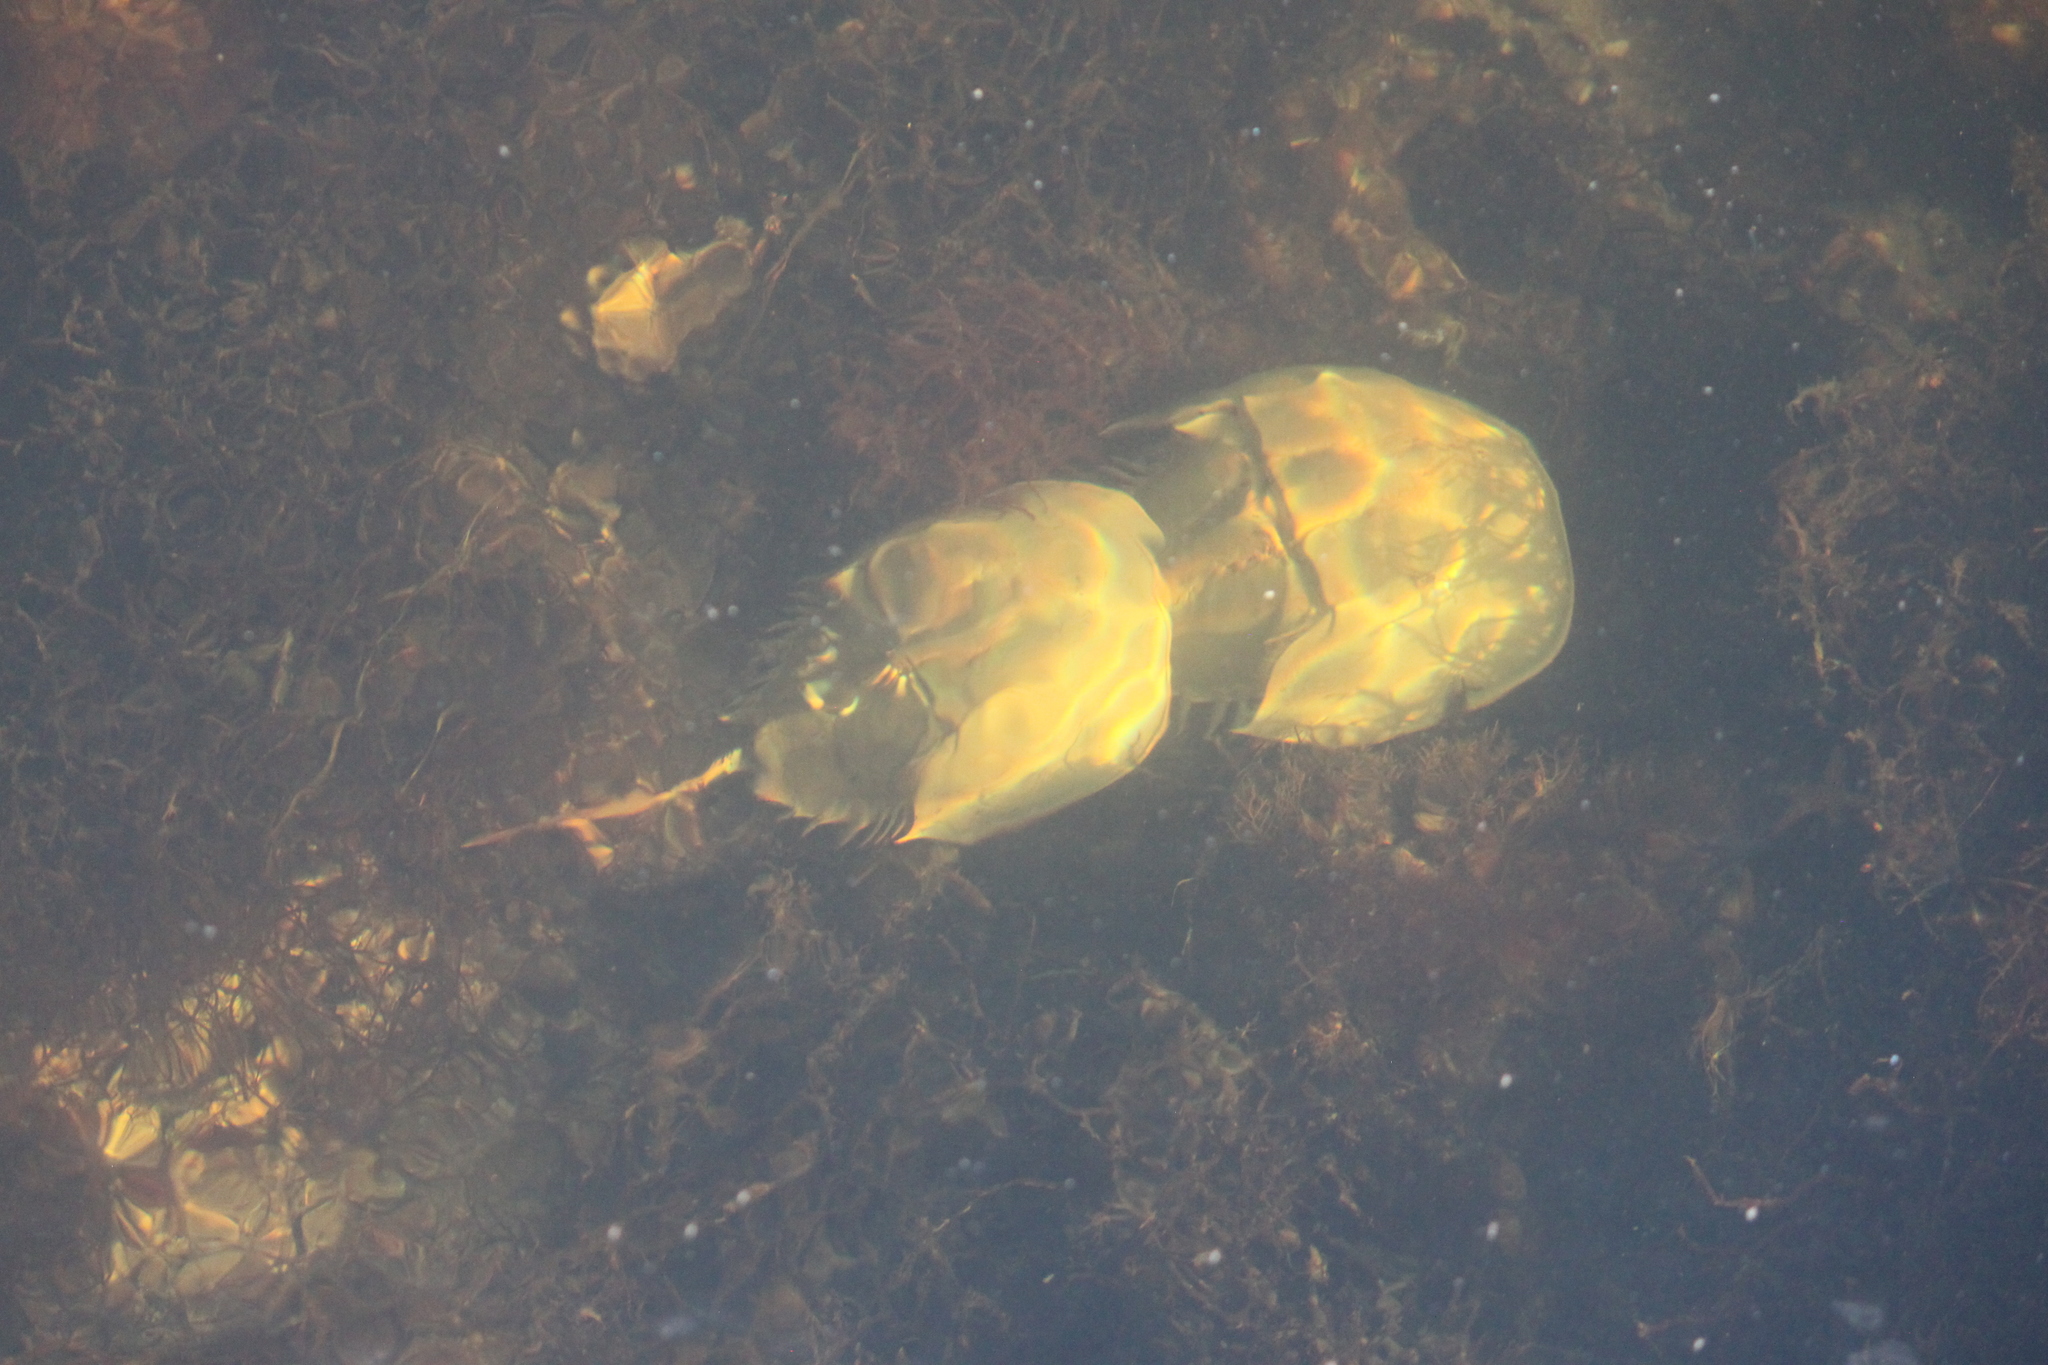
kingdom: Animalia
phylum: Arthropoda
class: Merostomata
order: Xiphosurida
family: Limulidae
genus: Limulus
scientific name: Limulus polyphemus
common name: Horseshoe crab
